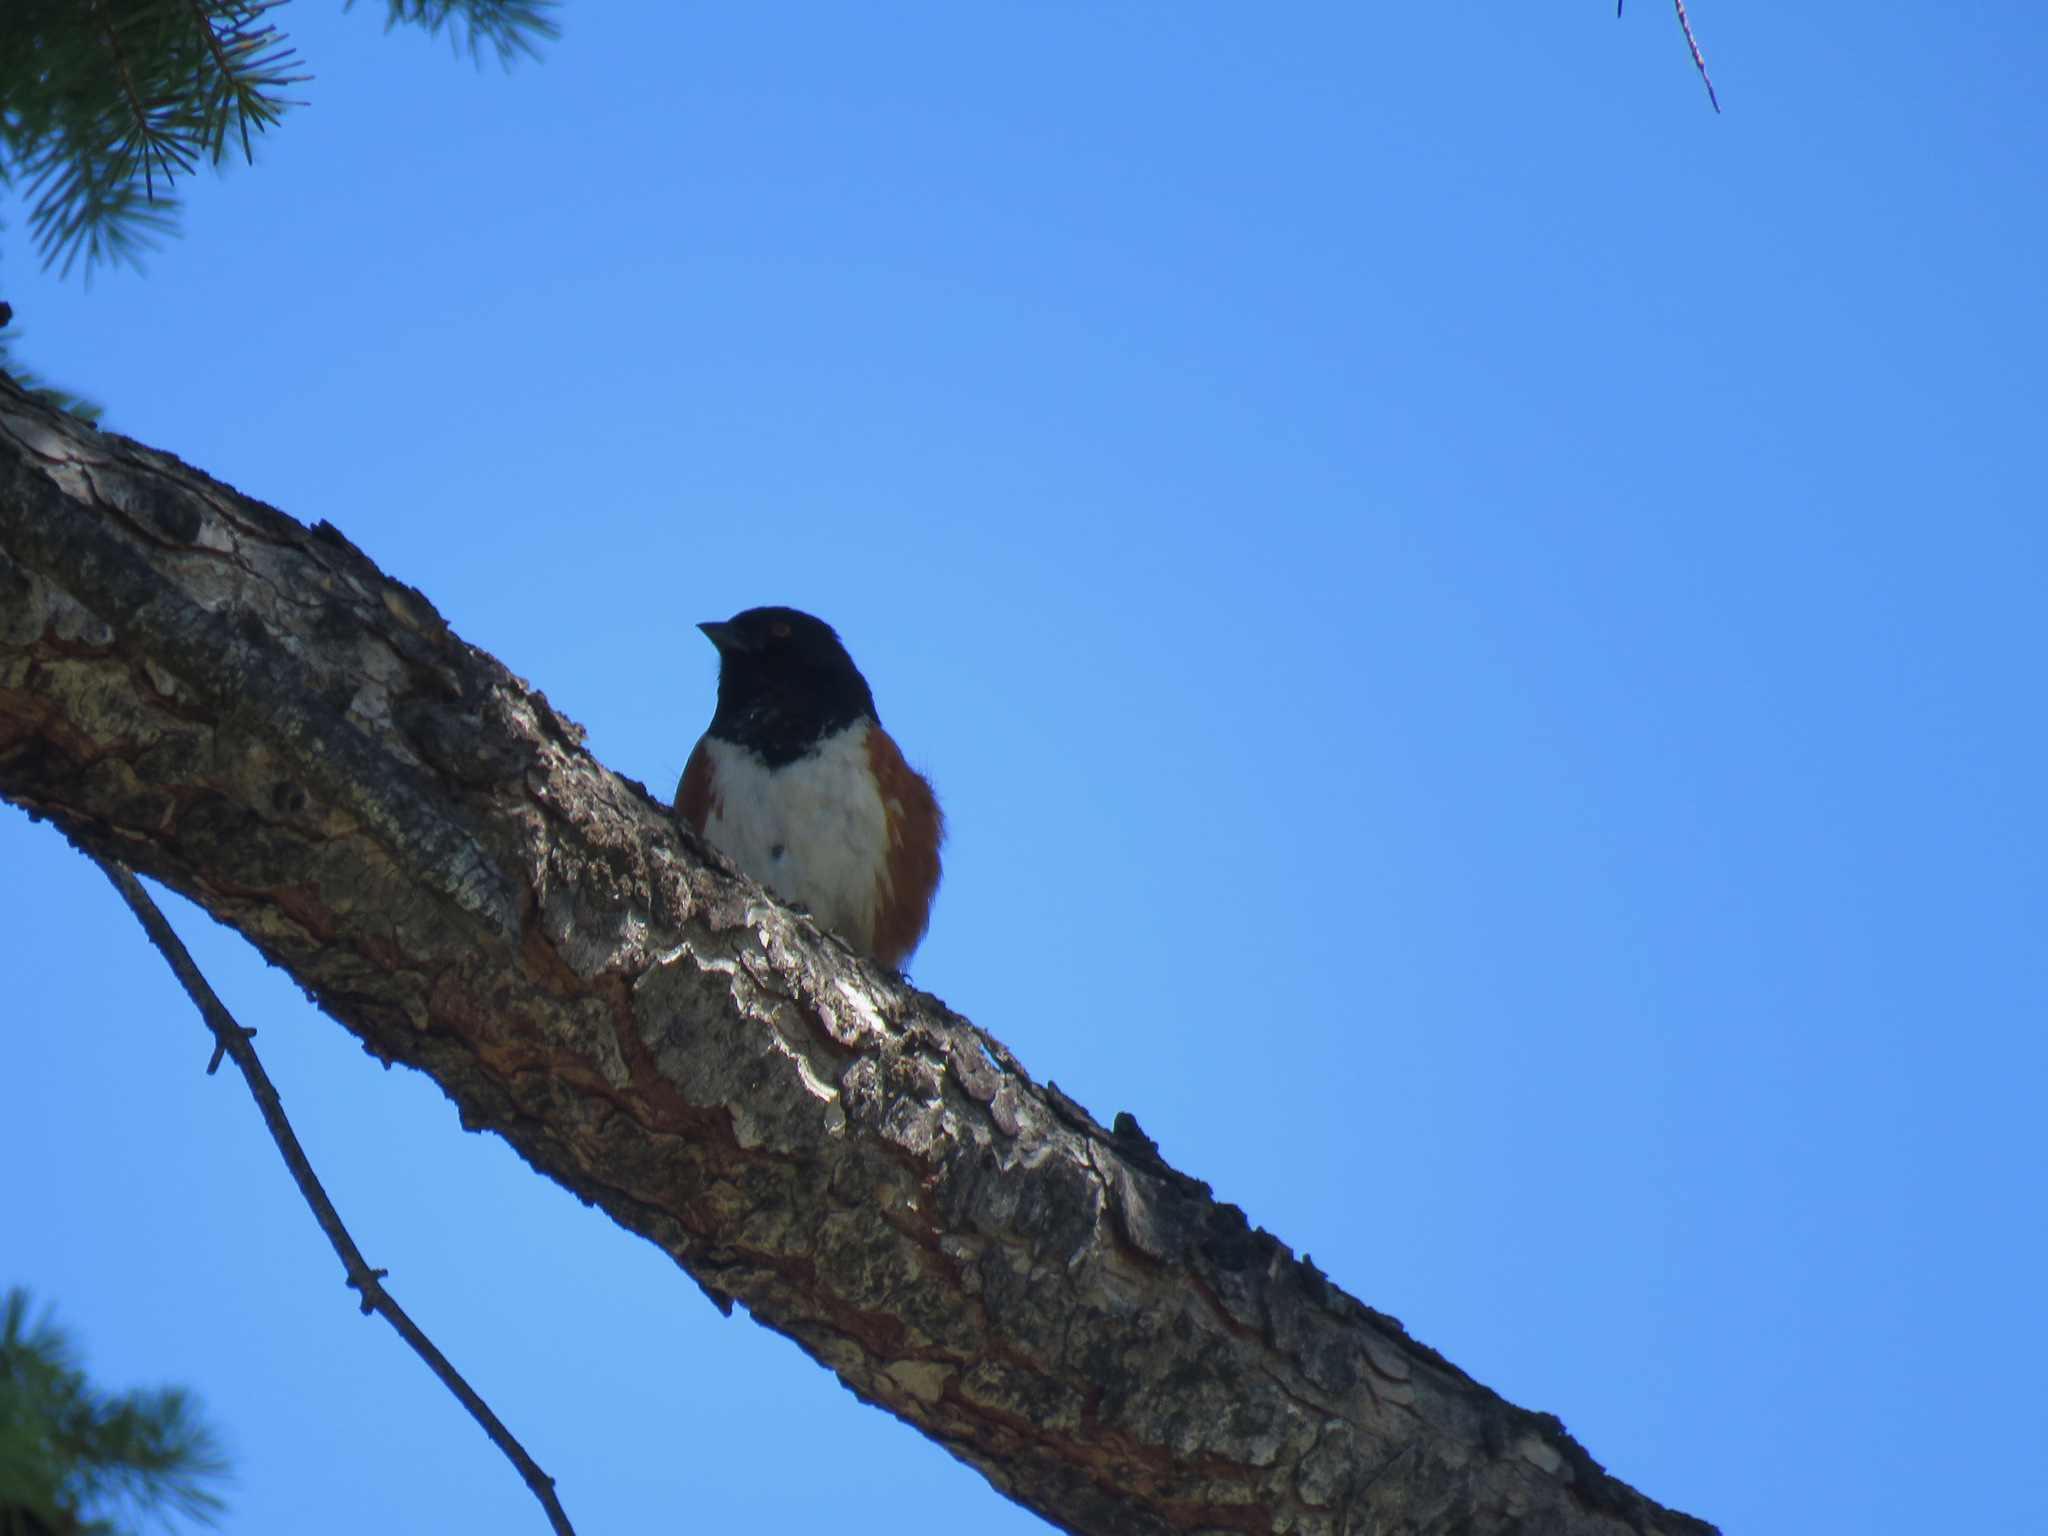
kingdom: Animalia
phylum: Chordata
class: Aves
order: Passeriformes
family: Passerellidae
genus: Pipilo
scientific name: Pipilo maculatus
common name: Spotted towhee
